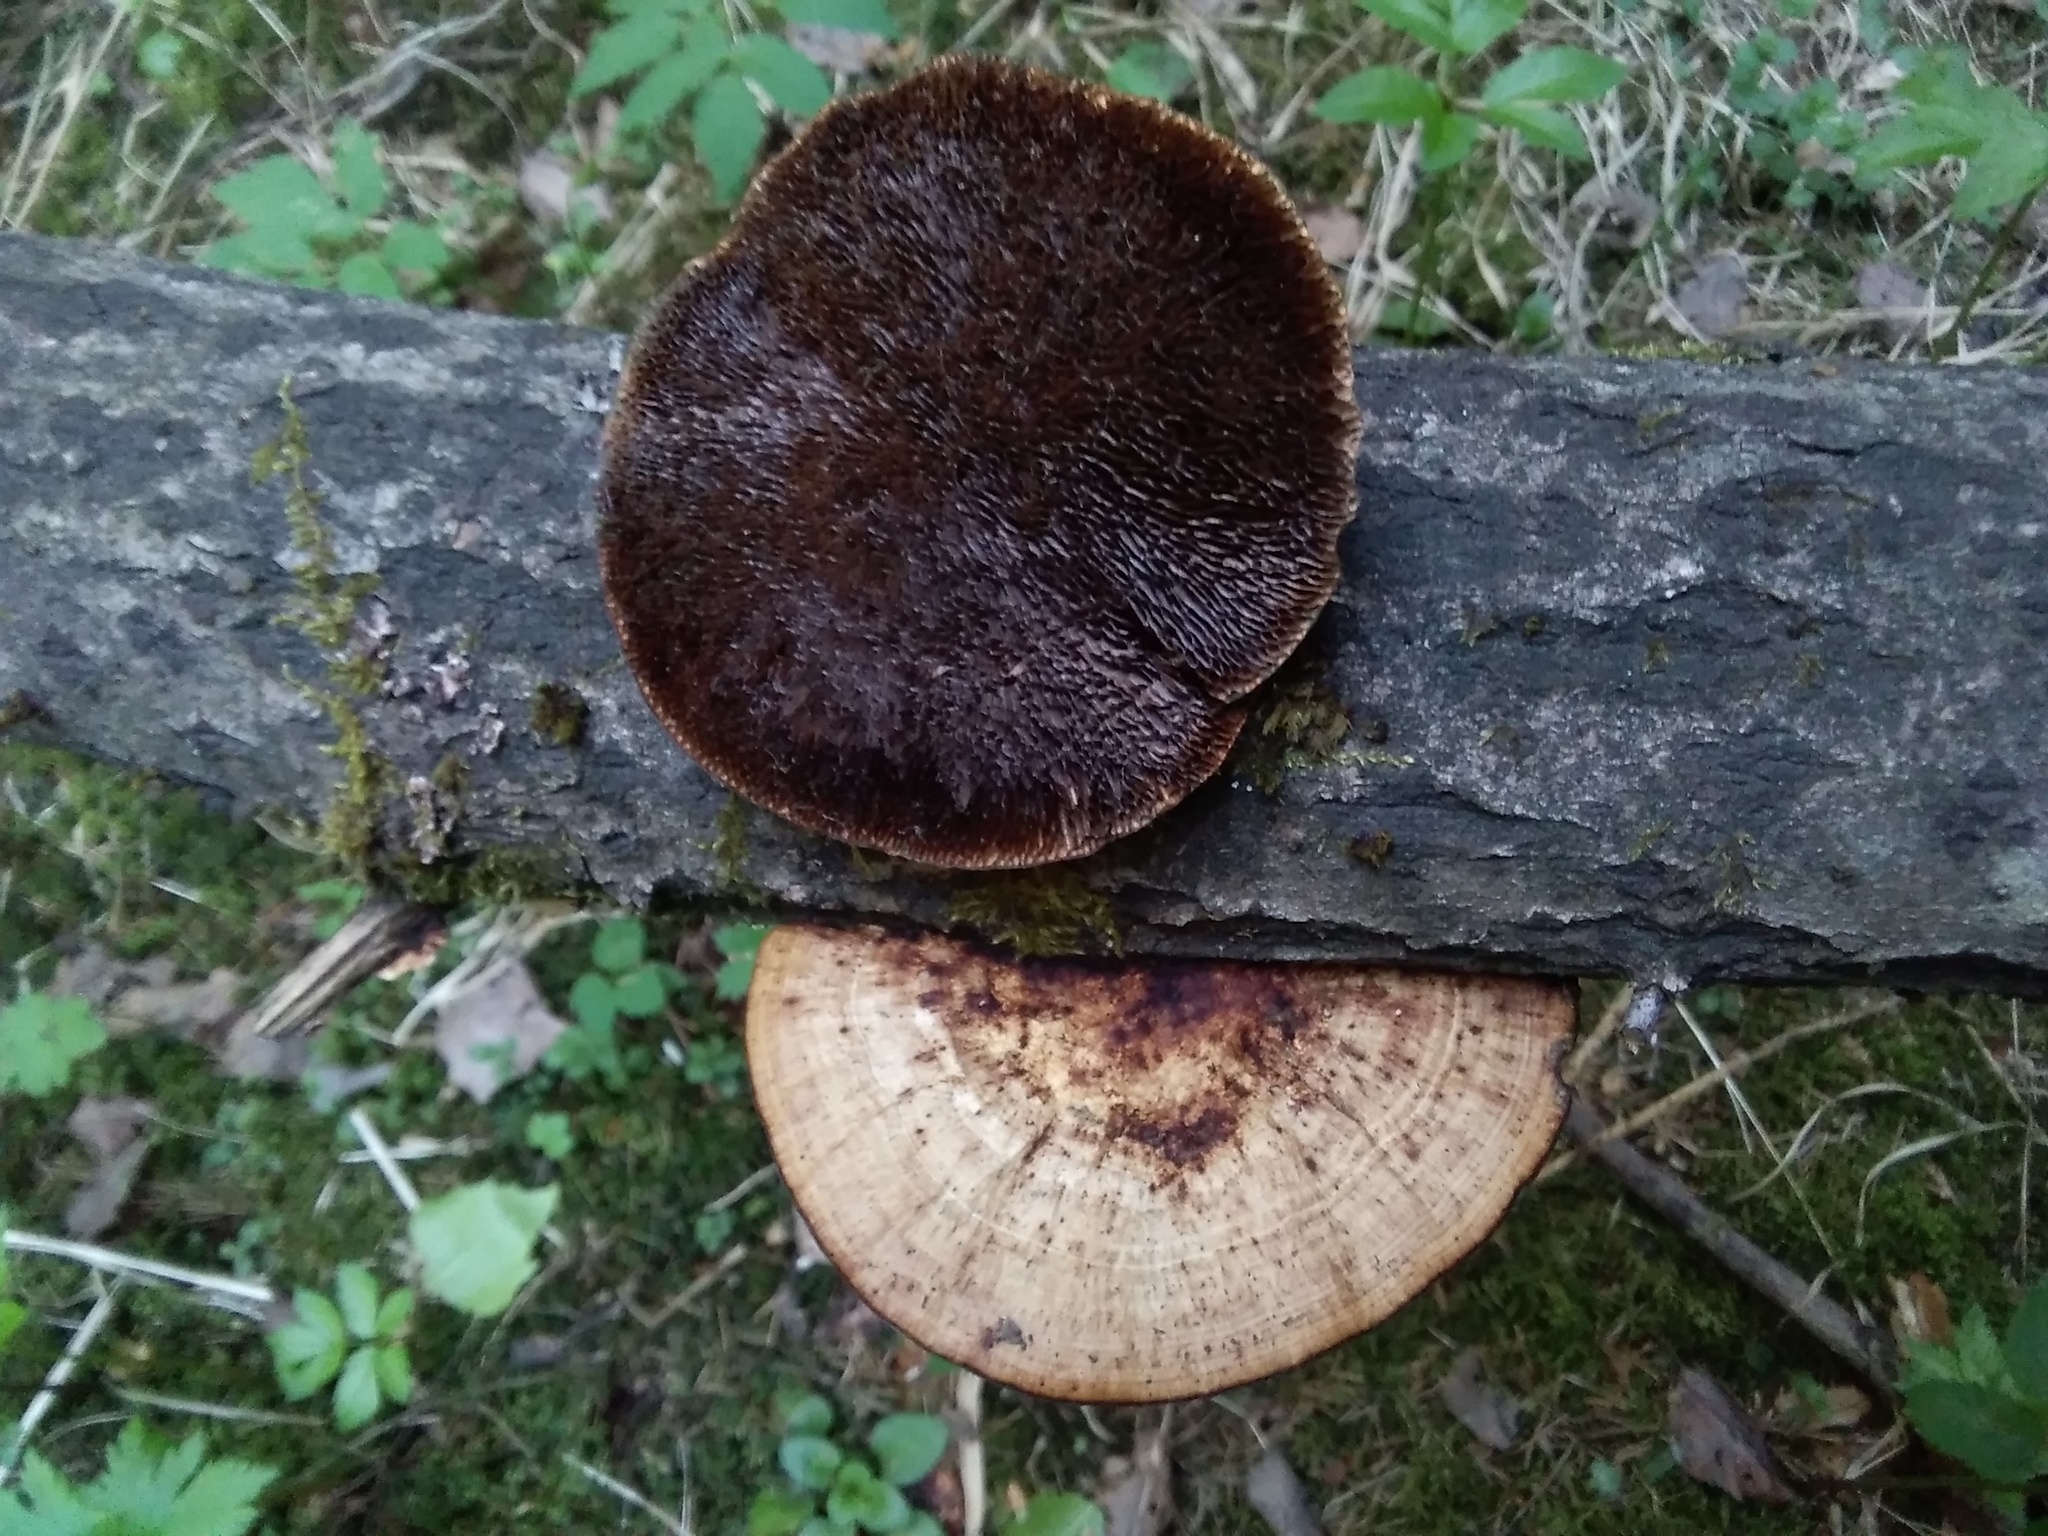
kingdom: Fungi
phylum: Basidiomycota
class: Agaricomycetes
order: Polyporales
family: Polyporaceae
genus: Daedaleopsis
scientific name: Daedaleopsis confragosa
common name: Blushing bracket
